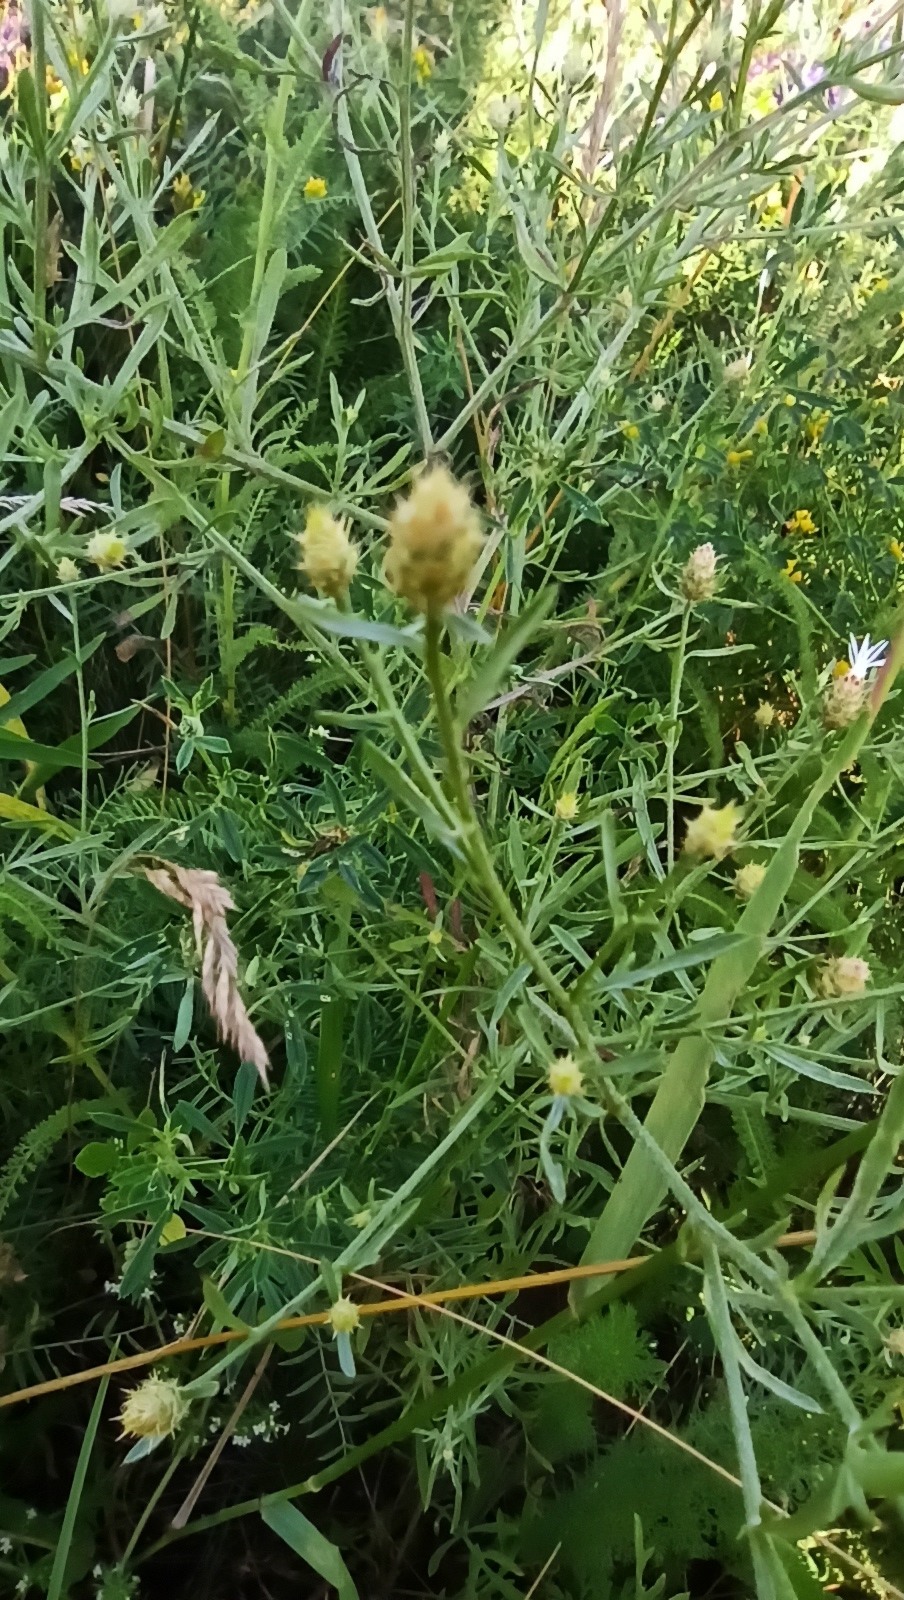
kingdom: Plantae
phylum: Tracheophyta
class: Magnoliopsida
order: Asterales
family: Asteraceae
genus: Centaurea
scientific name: Centaurea diffusa
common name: Diffuse knapweed
